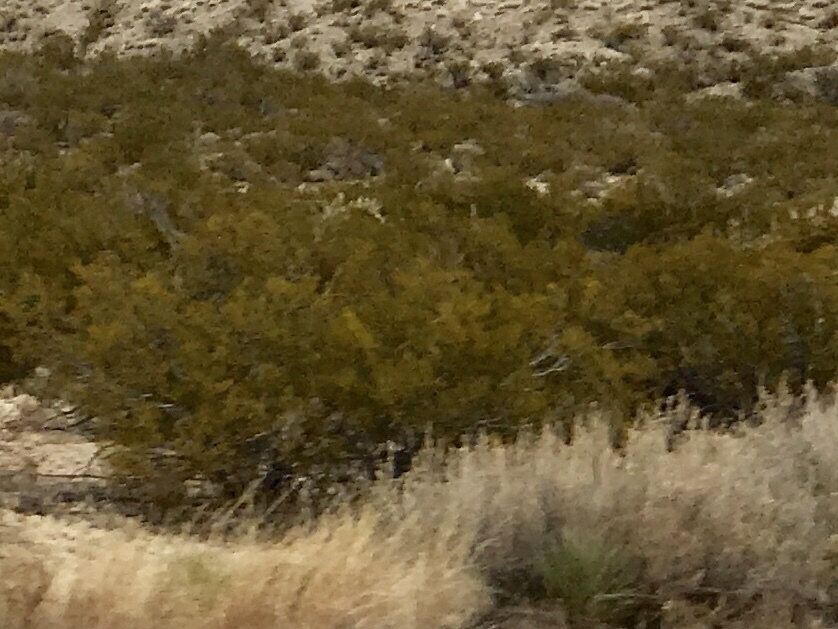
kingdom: Plantae
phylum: Tracheophyta
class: Magnoliopsida
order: Zygophyllales
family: Zygophyllaceae
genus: Larrea
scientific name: Larrea tridentata
